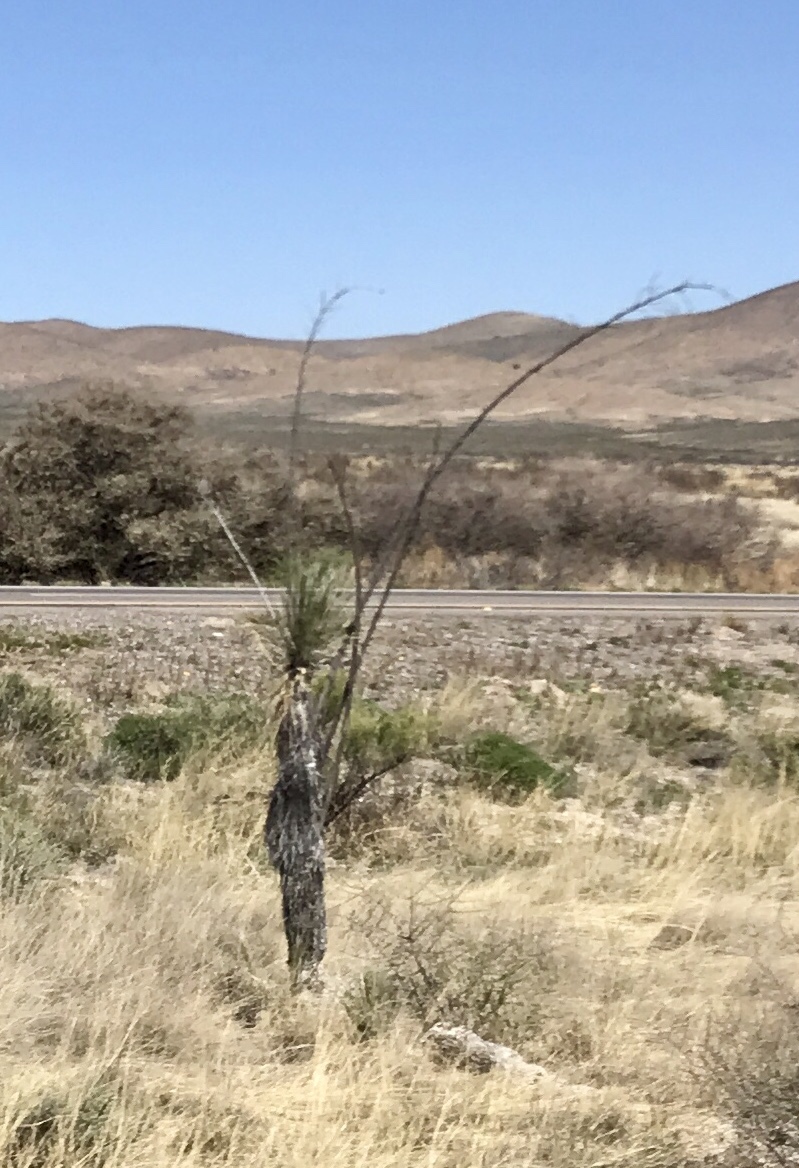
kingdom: Plantae
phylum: Tracheophyta
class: Liliopsida
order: Asparagales
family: Asparagaceae
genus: Yucca
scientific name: Yucca elata
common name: Palmella
